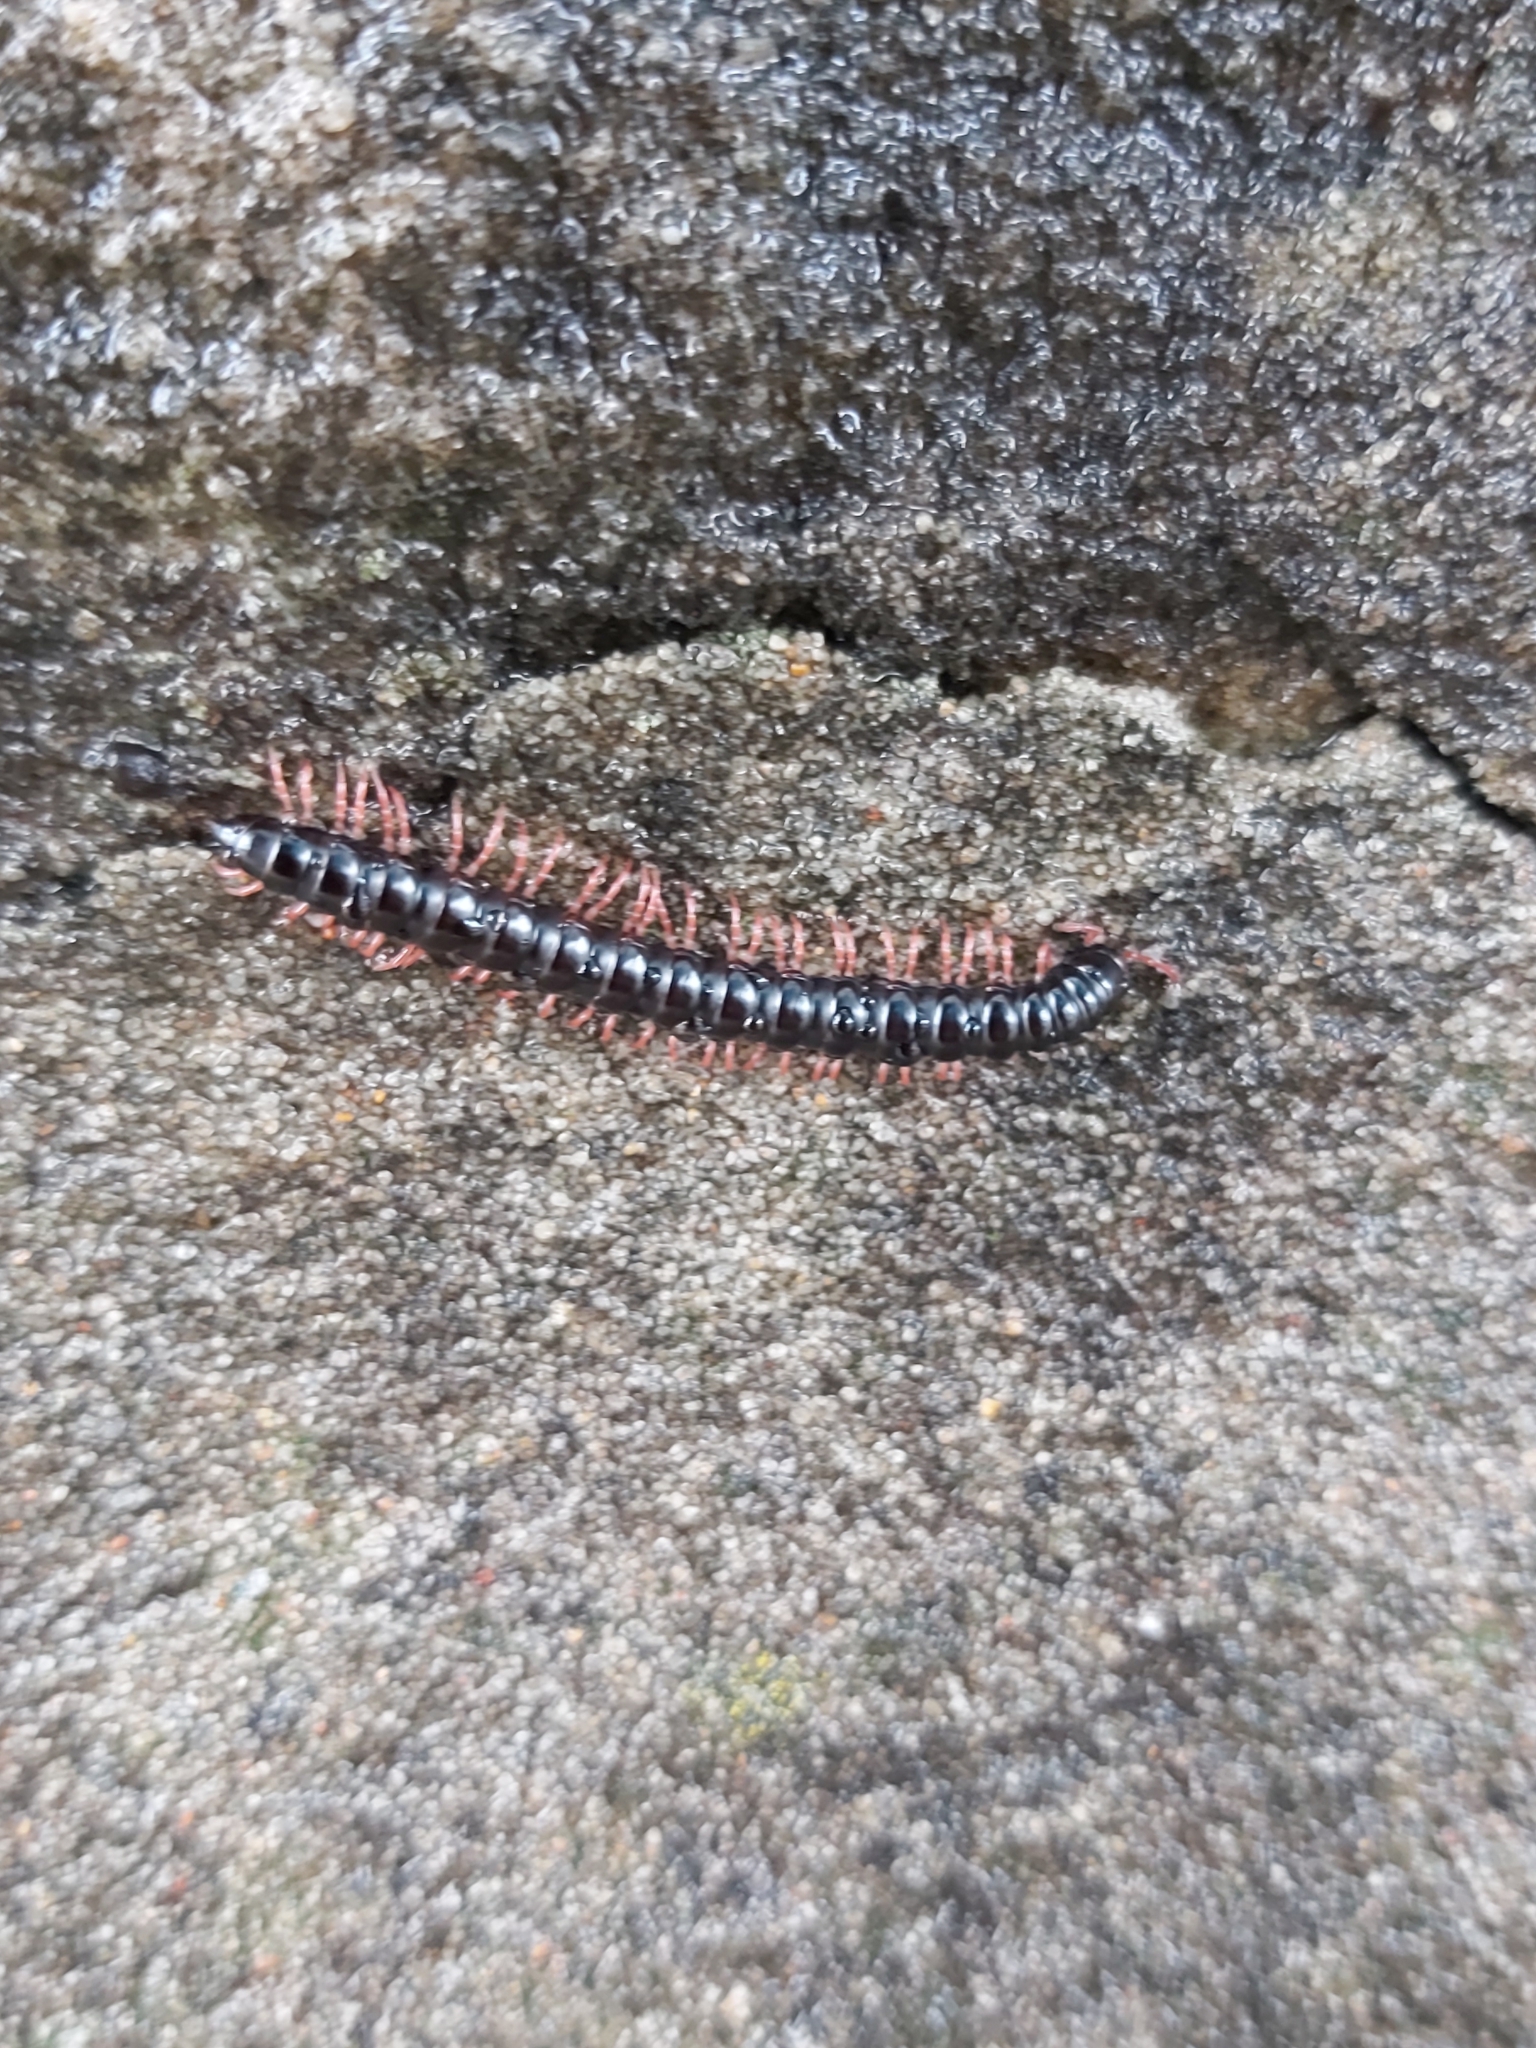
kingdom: Animalia
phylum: Arthropoda
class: Diplopoda
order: Polydesmida
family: Paradoxosomatidae
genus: Heterocladosoma
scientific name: Heterocladosoma
